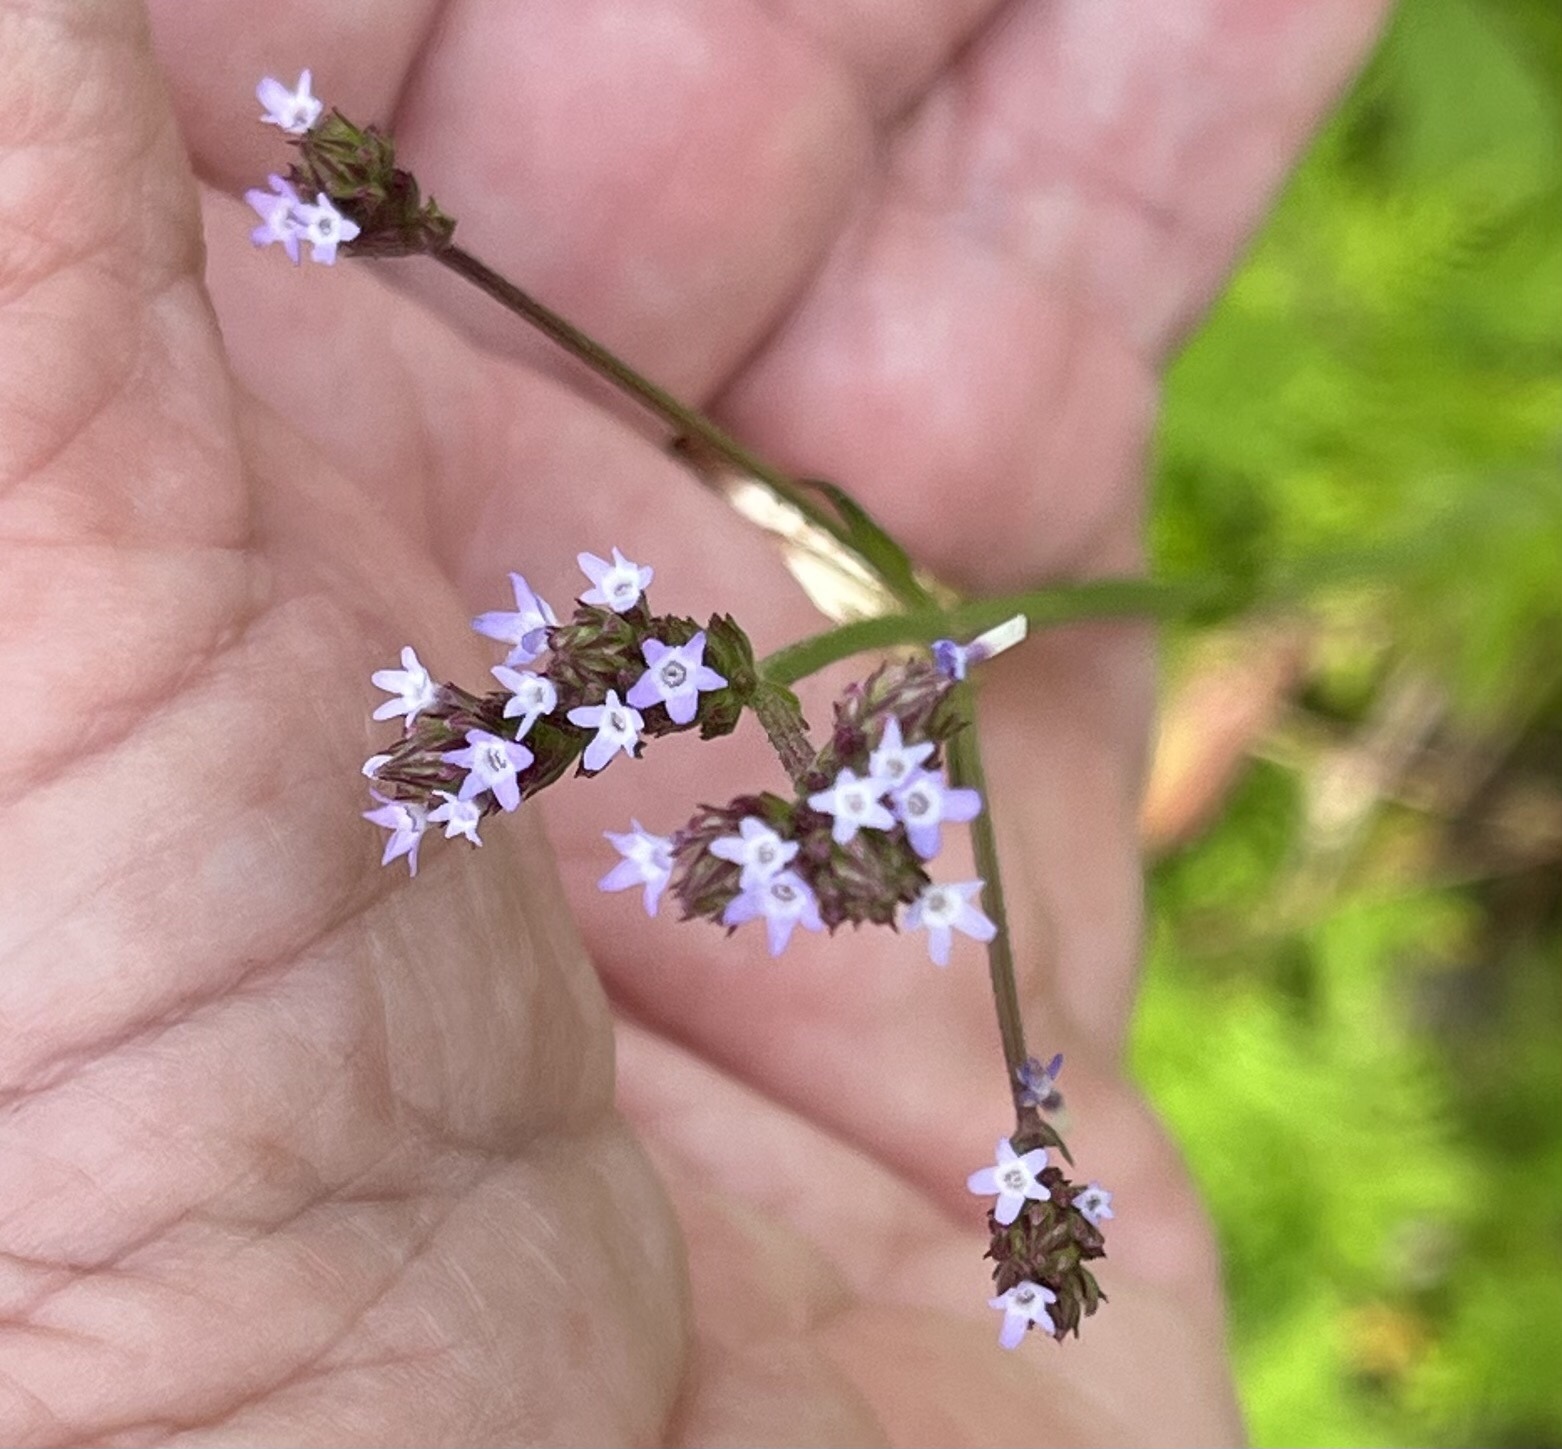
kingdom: Plantae
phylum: Tracheophyta
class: Magnoliopsida
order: Lamiales
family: Verbenaceae
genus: Verbena
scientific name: Verbena brasiliensis
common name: Brazilian vervain
